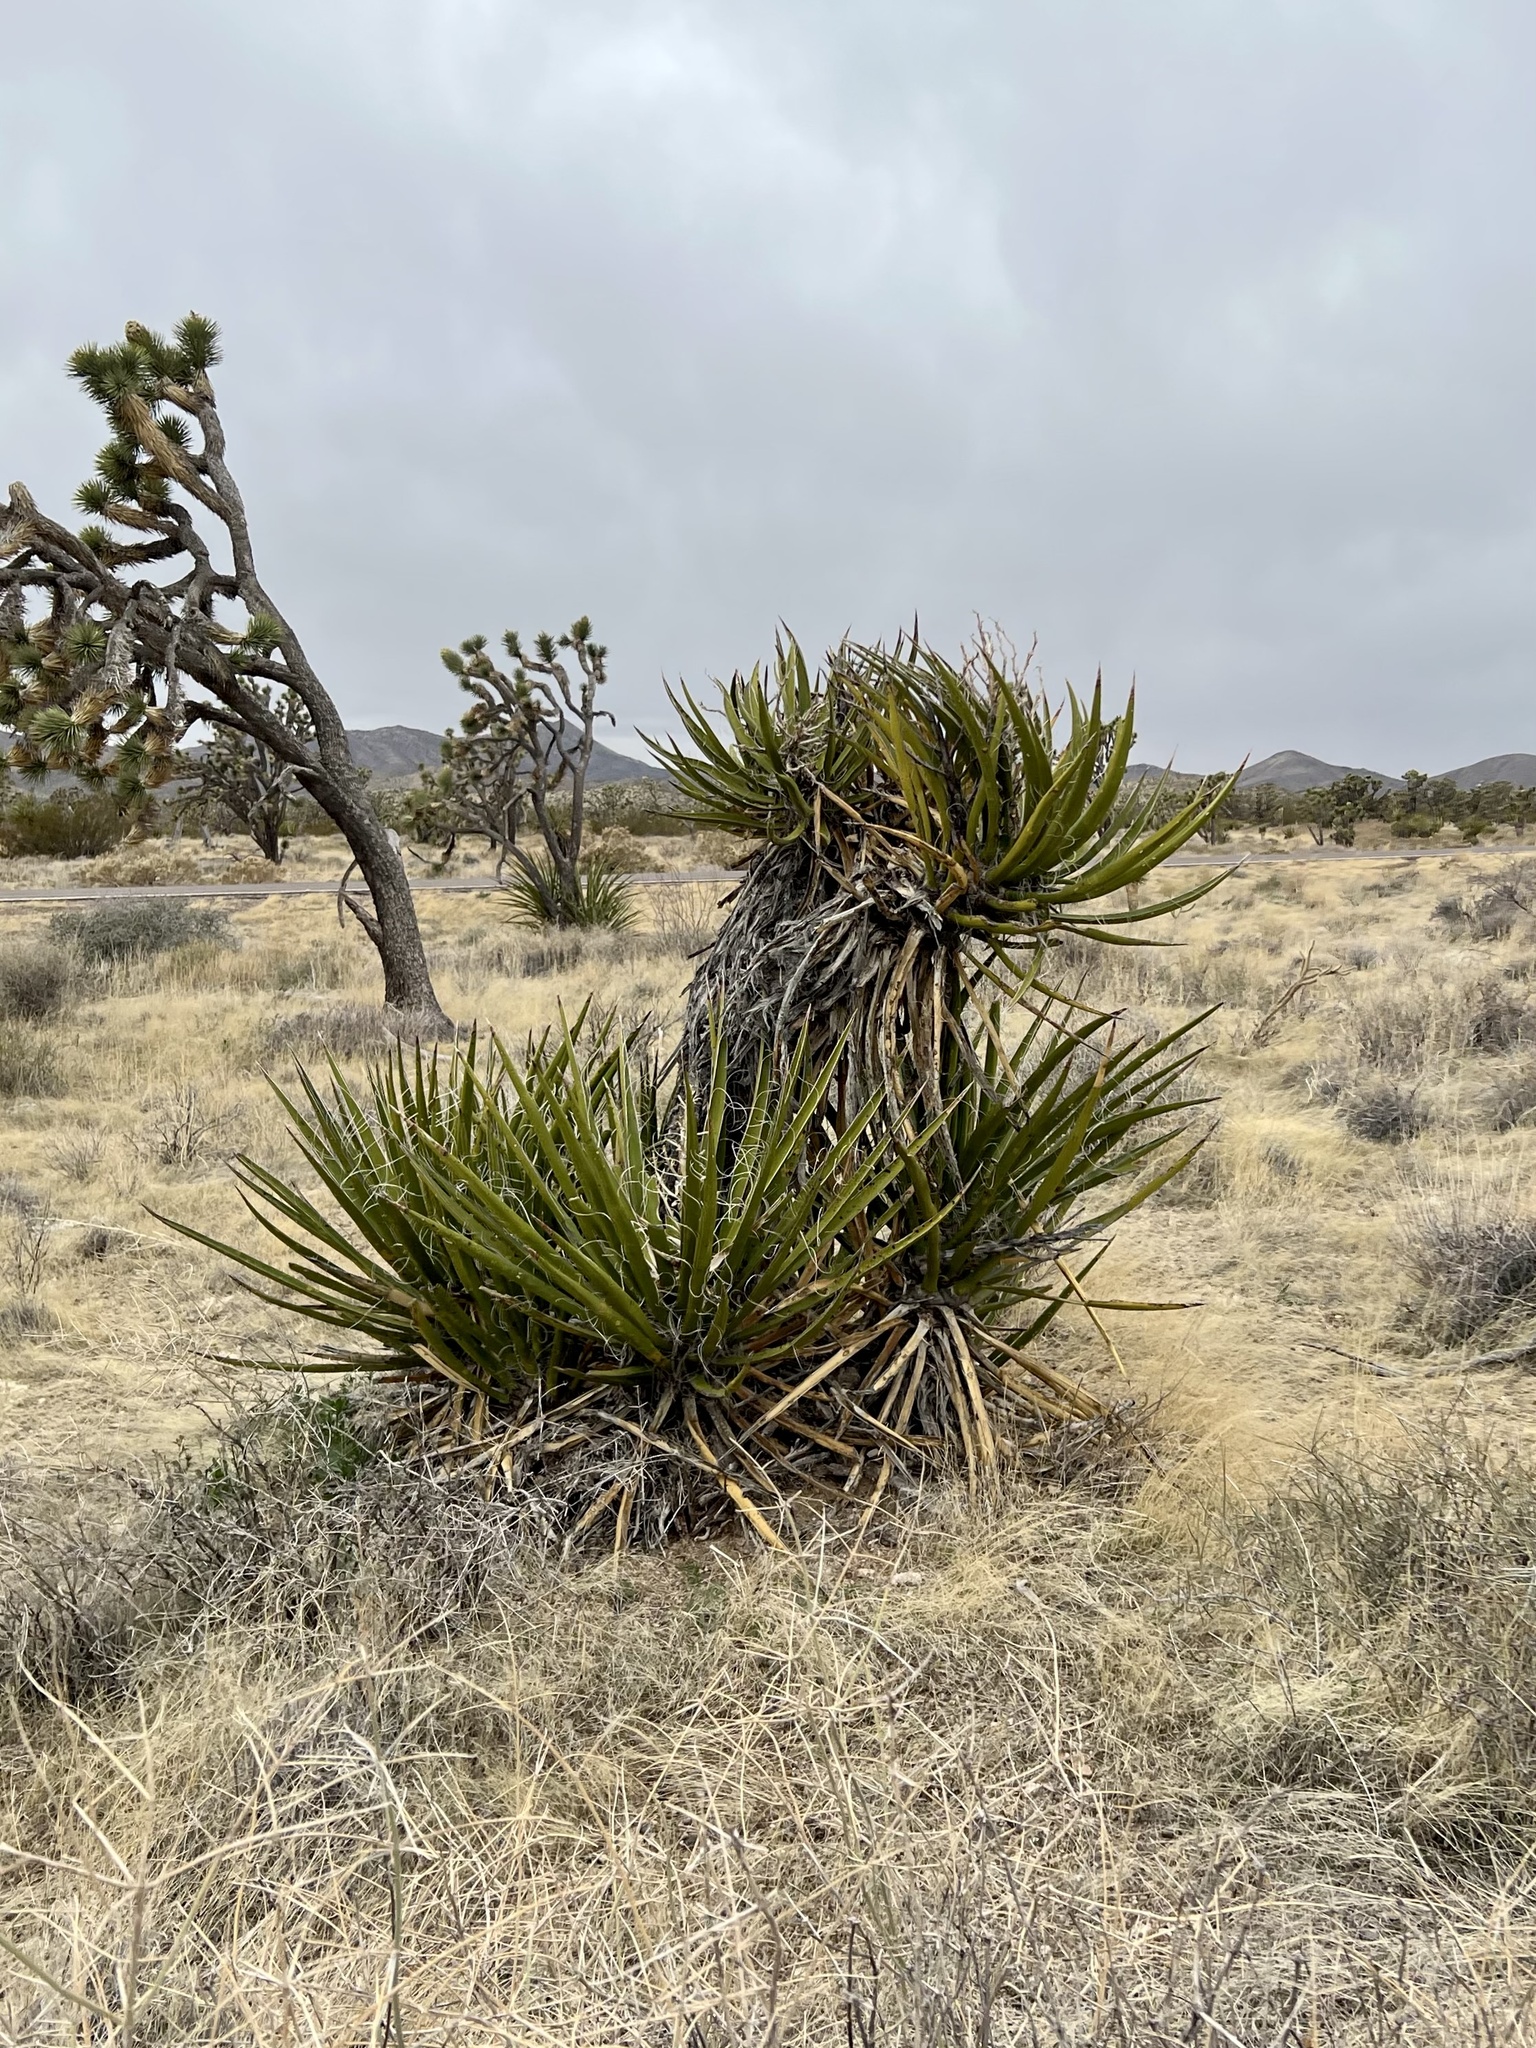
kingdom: Plantae
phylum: Tracheophyta
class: Liliopsida
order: Asparagales
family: Asparagaceae
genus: Yucca
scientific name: Yucca schidigera
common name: Mojave yucca
